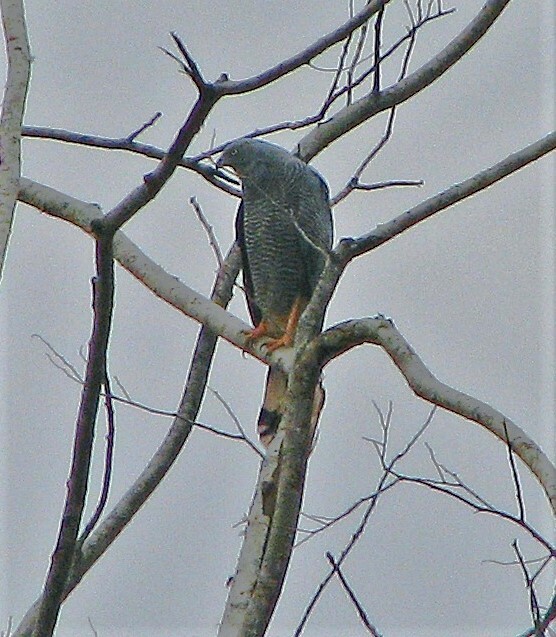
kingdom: Animalia
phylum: Chordata
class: Aves
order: Accipitriformes
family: Accipitridae
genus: Geranospiza
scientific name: Geranospiza caerulescens
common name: Crane hawk
